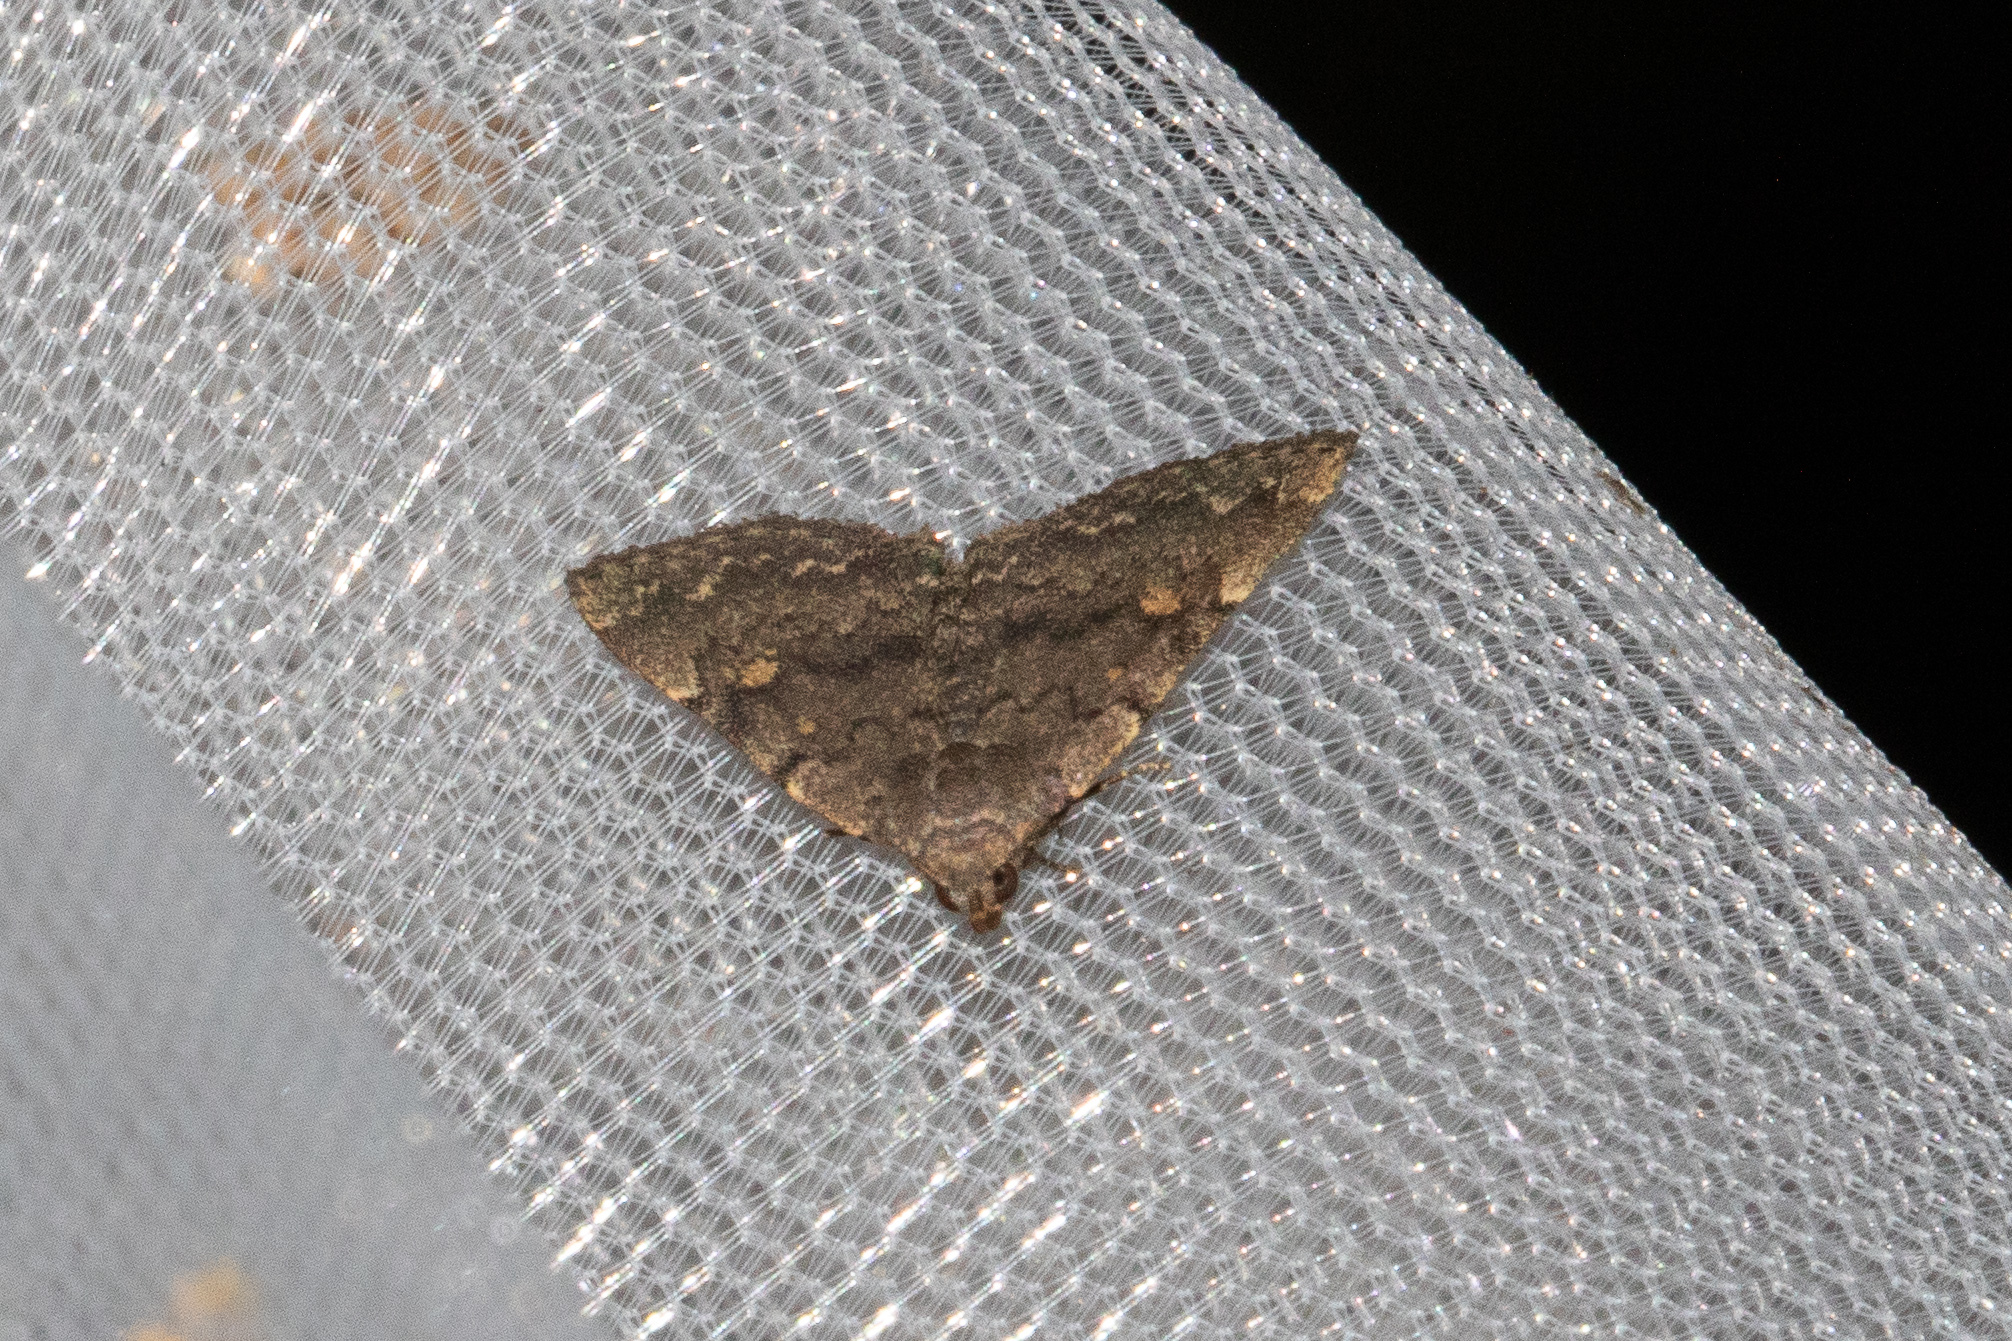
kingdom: Animalia
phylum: Arthropoda
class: Insecta
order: Lepidoptera
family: Erebidae
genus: Idia
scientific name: Idia aemula
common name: Common idia moth
